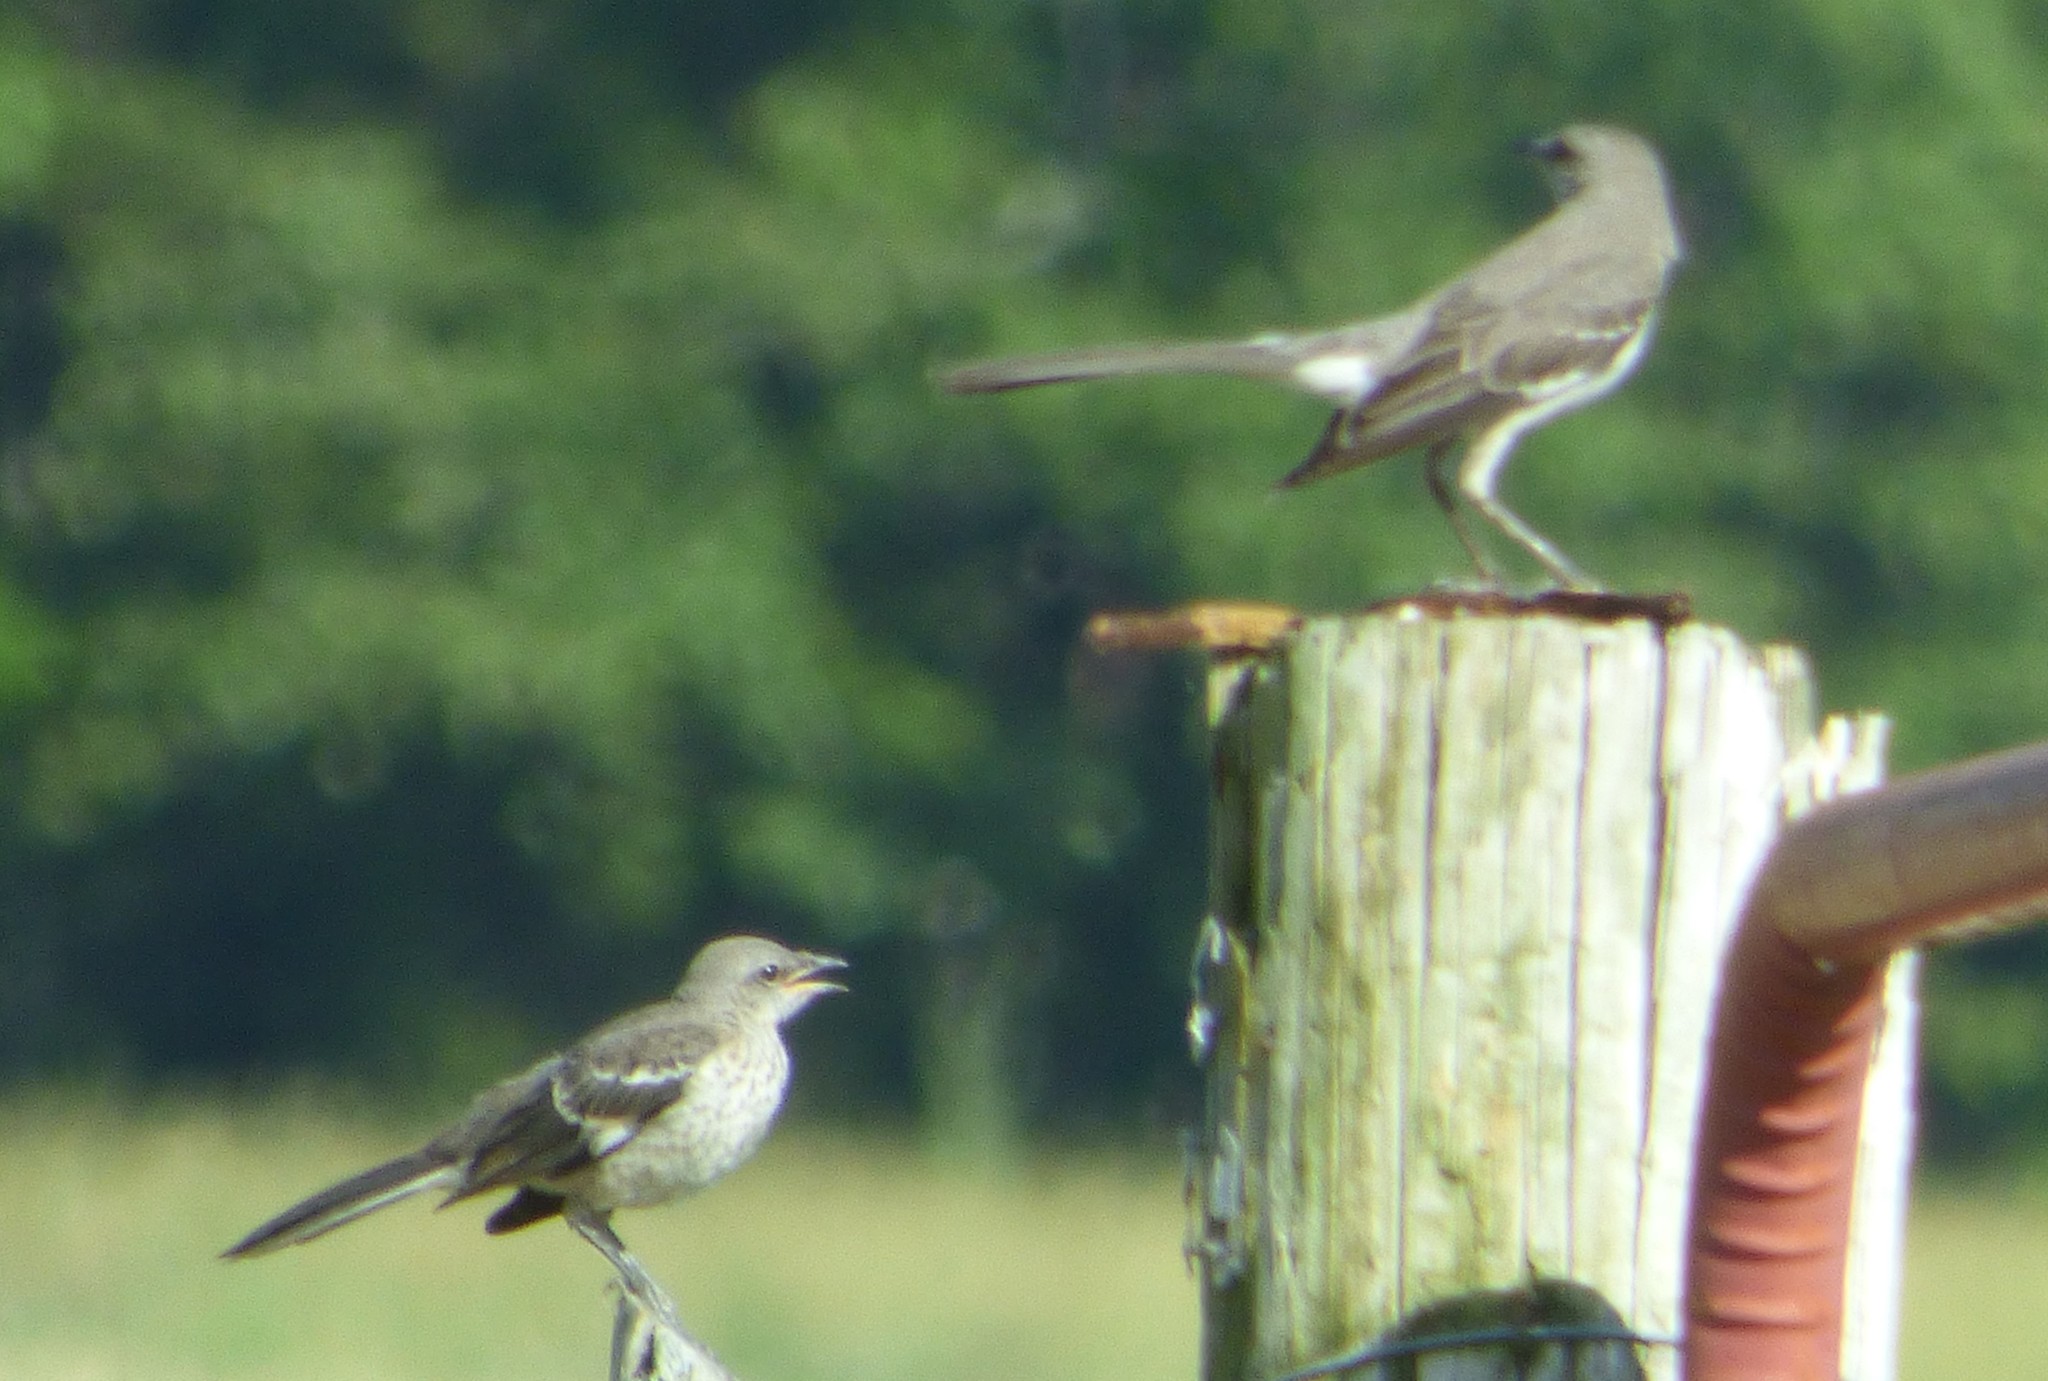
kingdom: Animalia
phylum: Chordata
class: Aves
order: Passeriformes
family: Mimidae
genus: Mimus
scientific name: Mimus polyglottos
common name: Northern mockingbird
